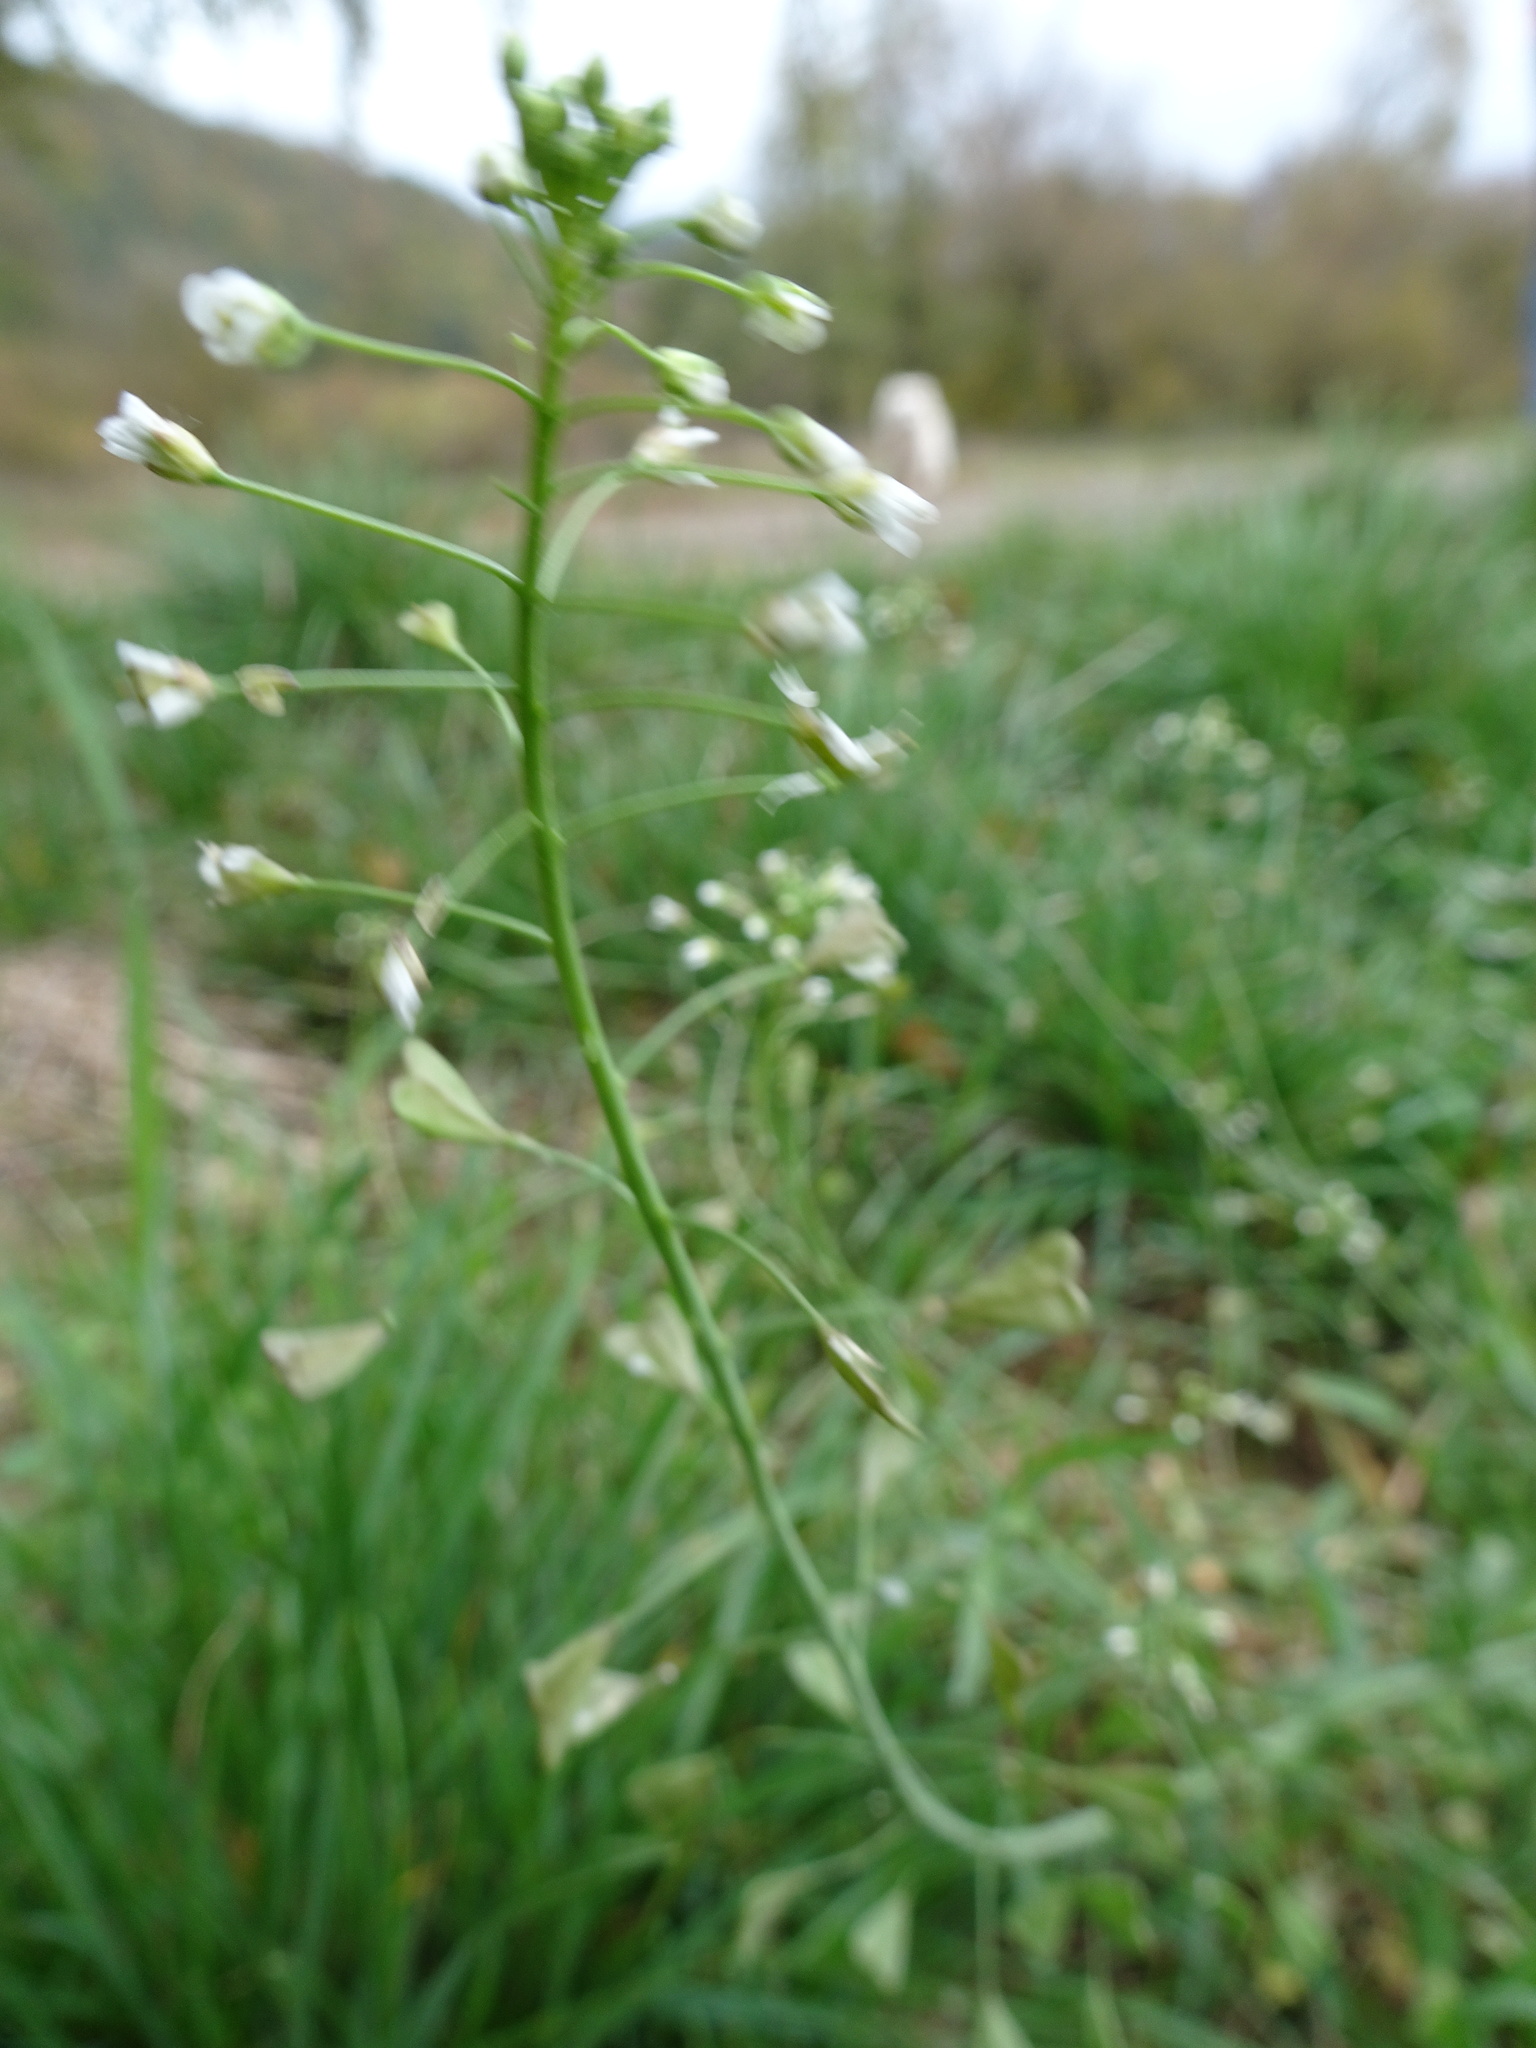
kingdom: Plantae
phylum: Tracheophyta
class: Magnoliopsida
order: Brassicales
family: Brassicaceae
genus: Capsella
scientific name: Capsella bursa-pastoris
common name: Shepherd's purse
